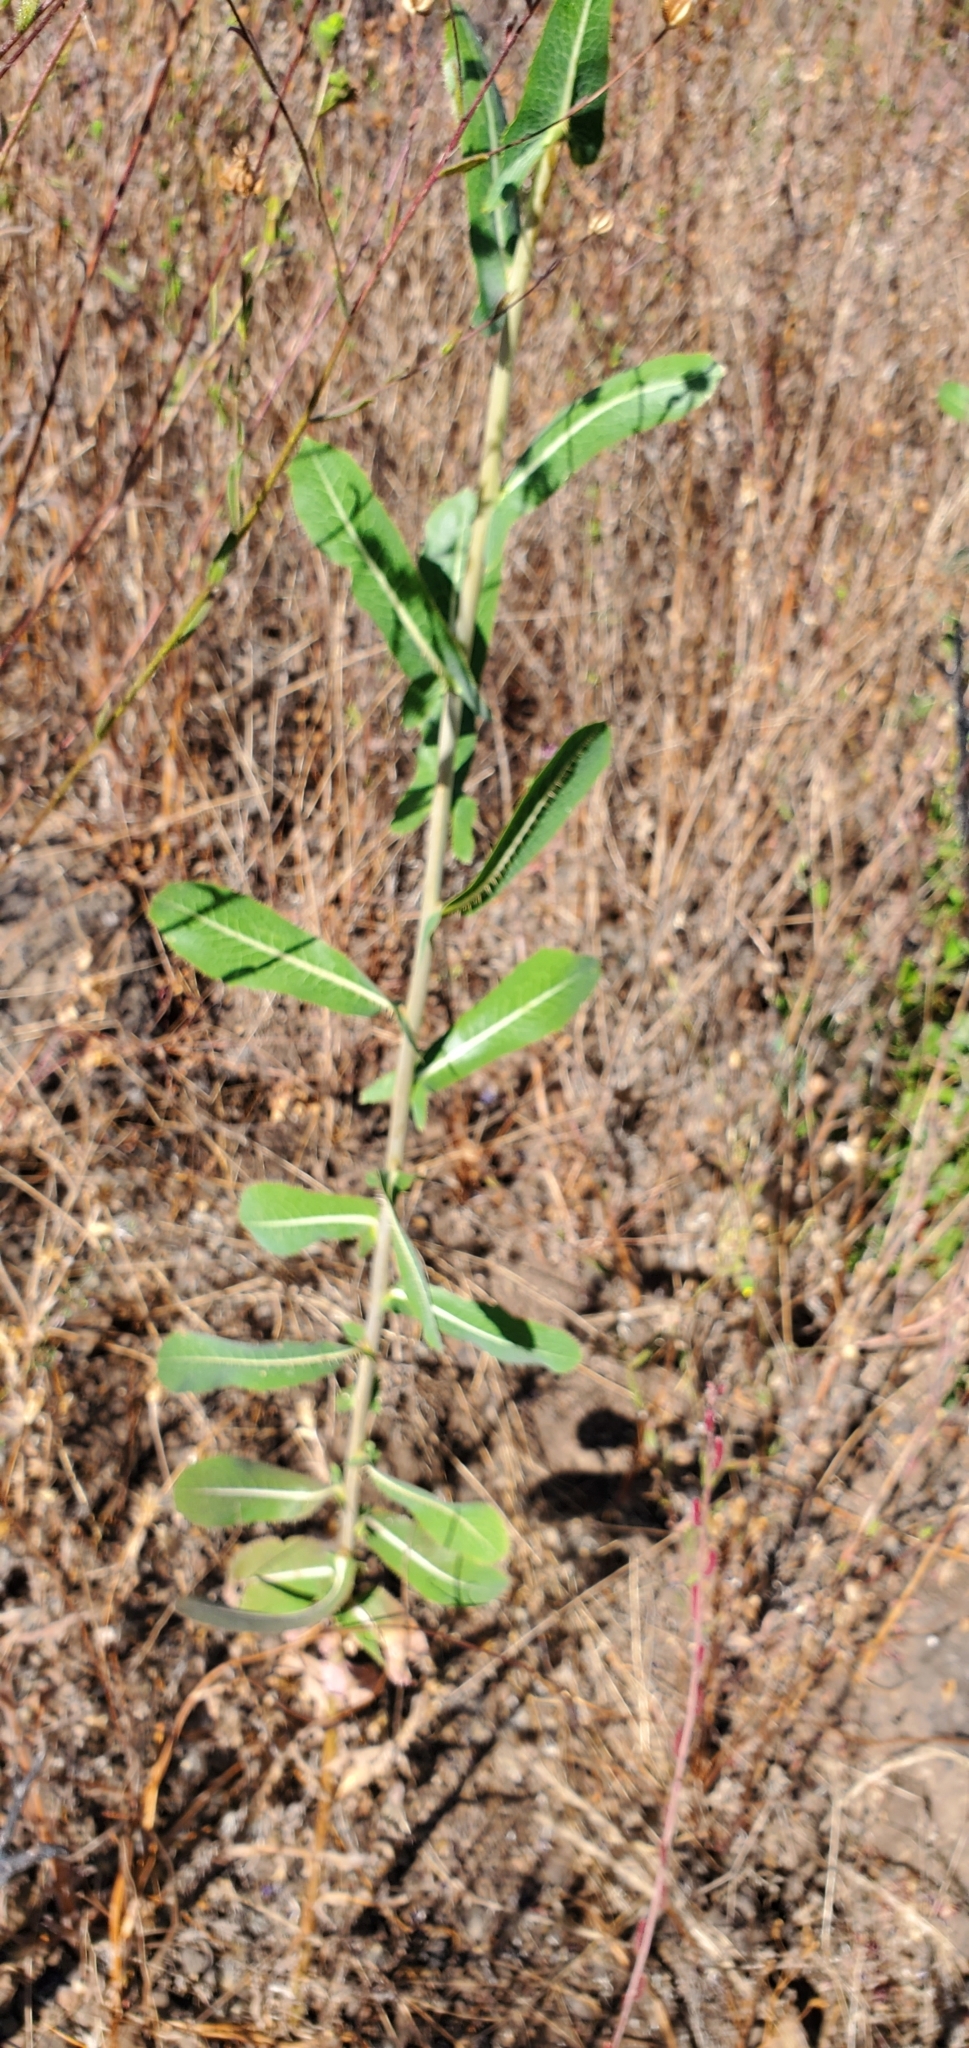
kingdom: Plantae
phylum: Tracheophyta
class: Magnoliopsida
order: Asterales
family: Asteraceae
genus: Lactuca
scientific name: Lactuca serriola
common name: Prickly lettuce
